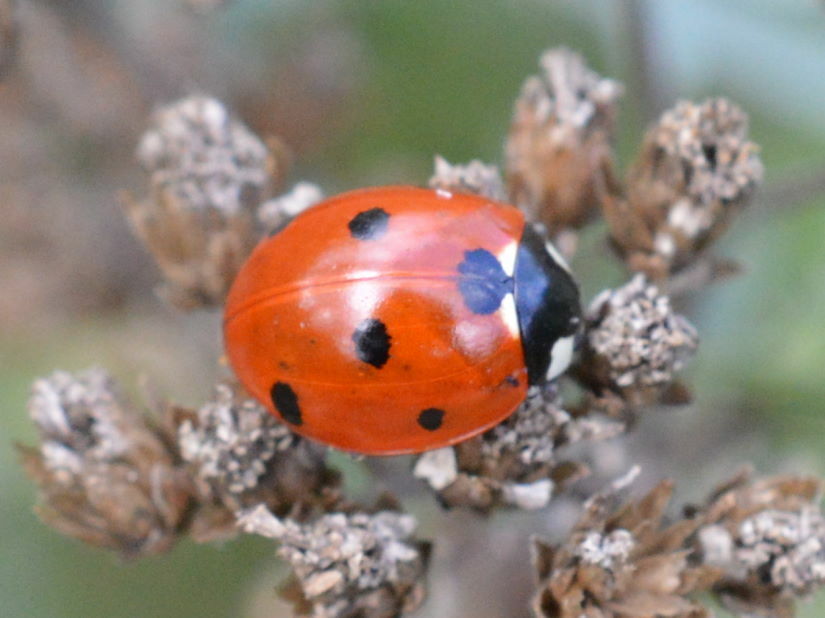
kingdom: Animalia
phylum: Arthropoda
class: Insecta
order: Coleoptera
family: Coccinellidae
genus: Coccinella
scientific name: Coccinella septempunctata
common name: Sevenspotted lady beetle
